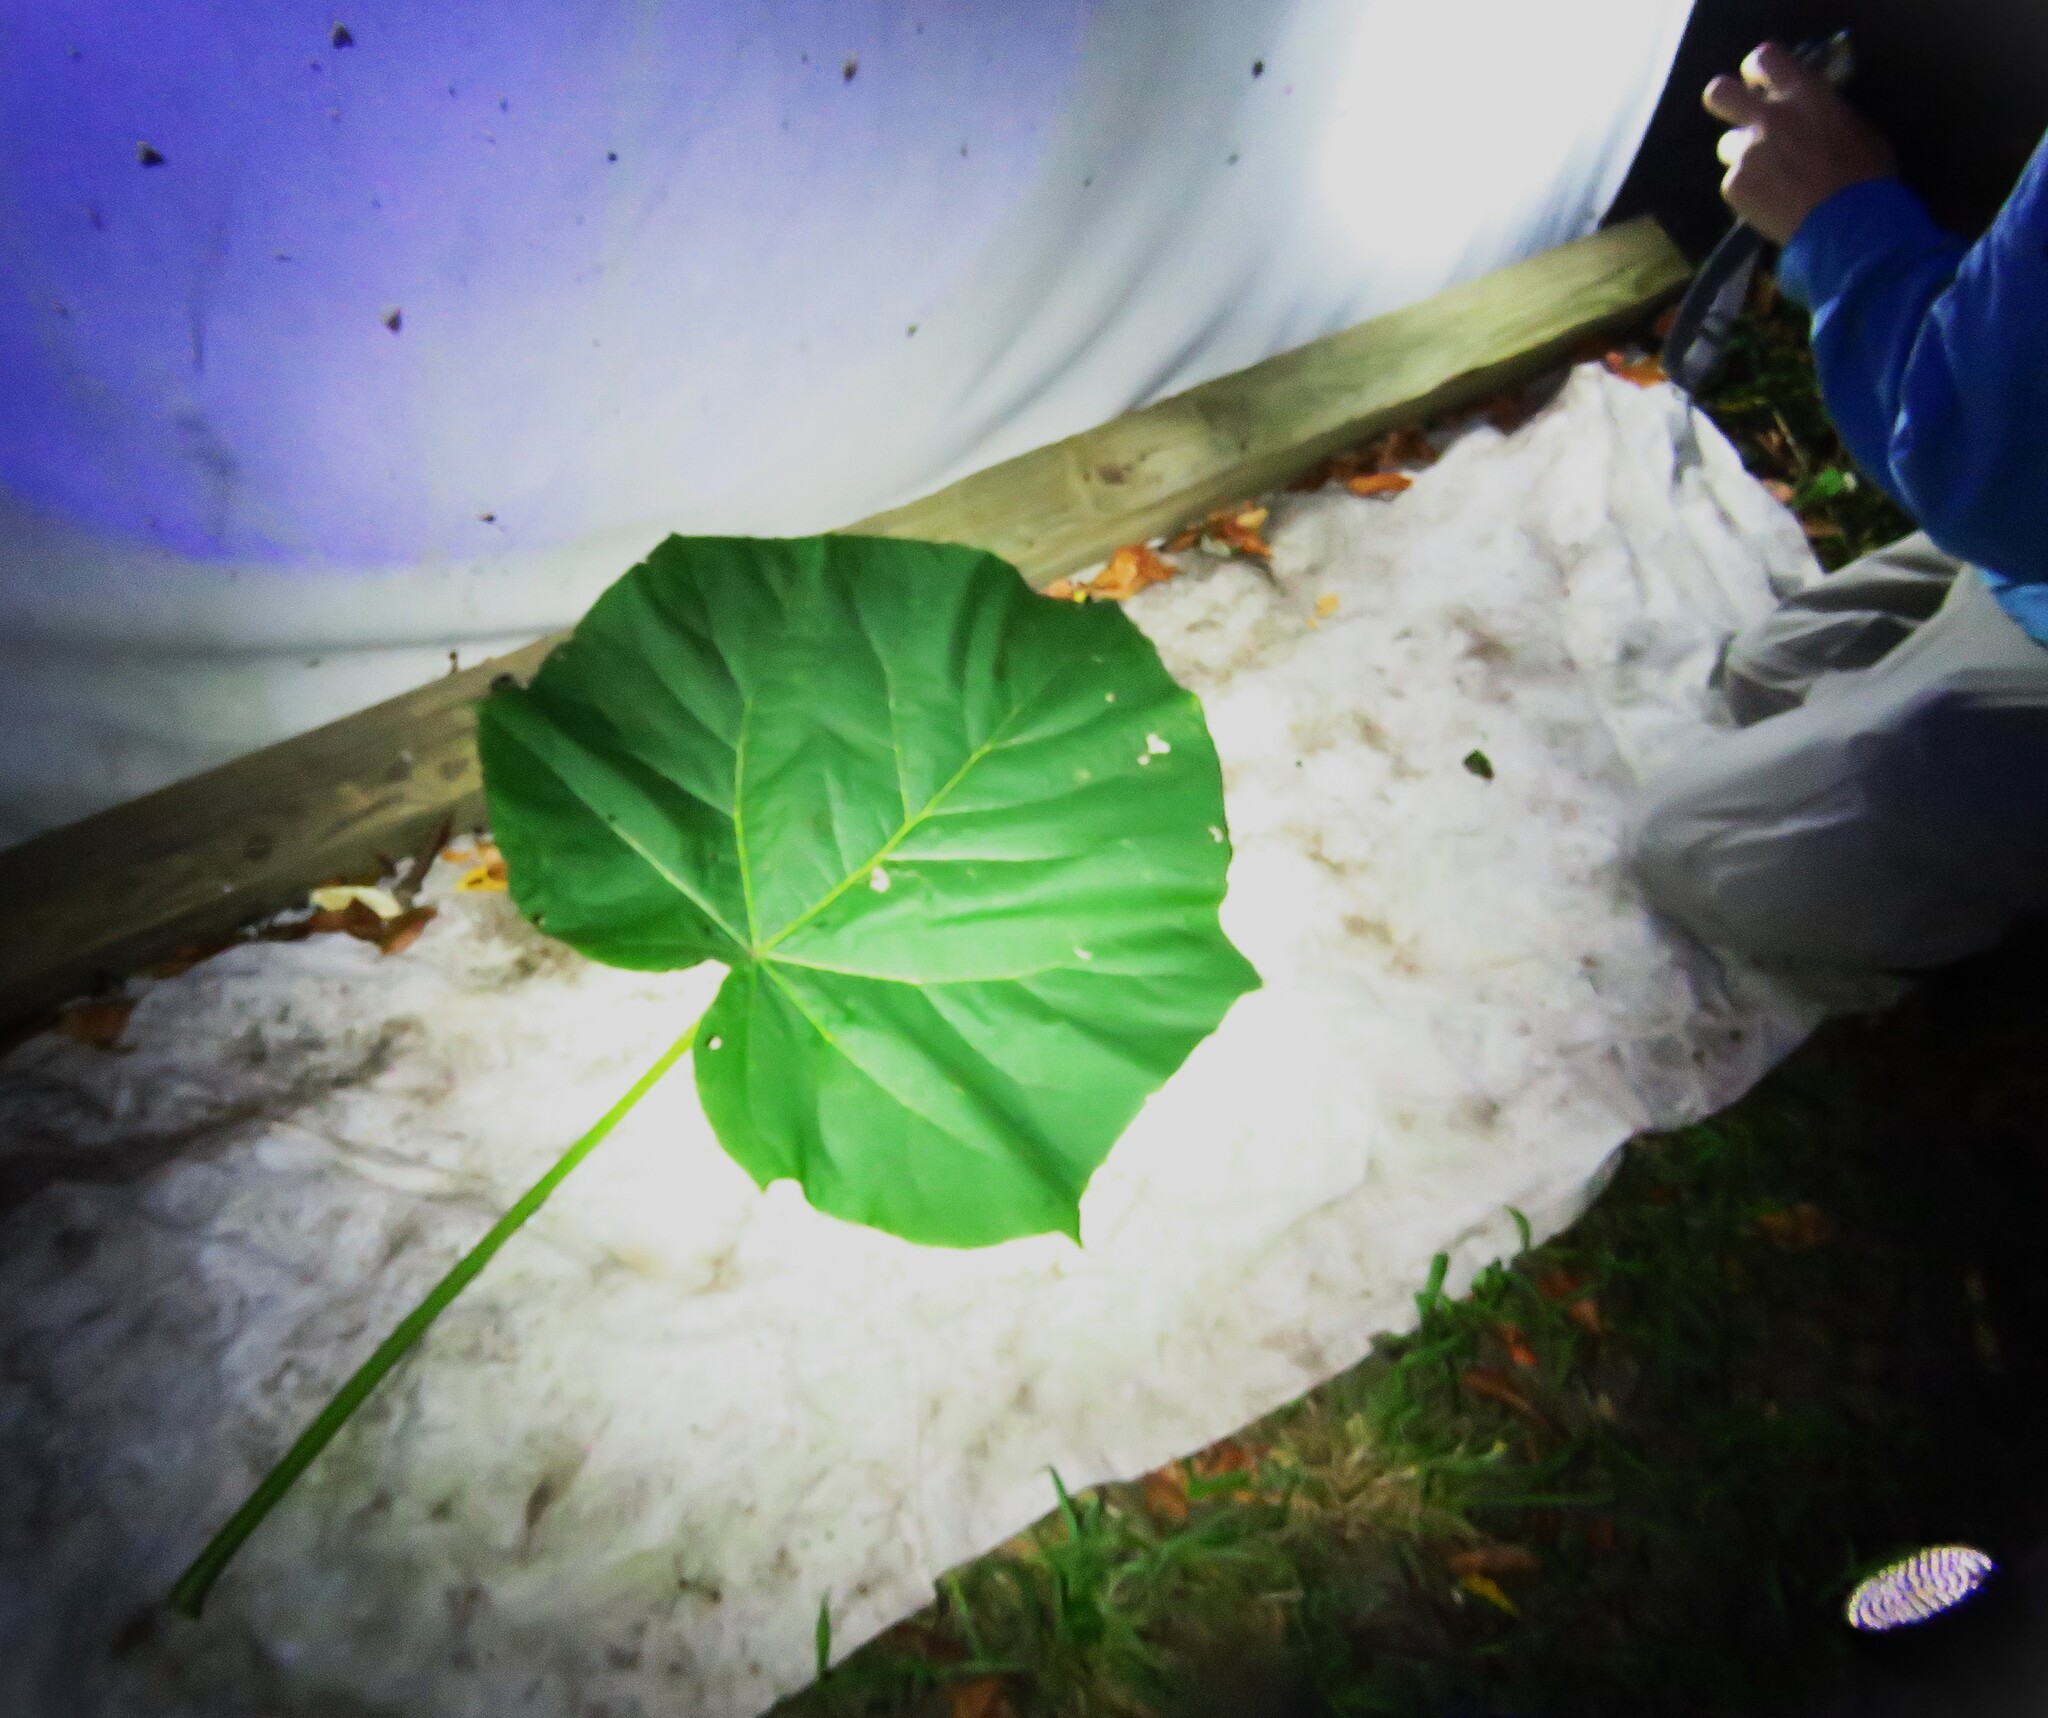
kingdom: Plantae
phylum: Tracheophyta
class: Magnoliopsida
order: Lamiales
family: Paulowniaceae
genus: Paulownia
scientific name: Paulownia tomentosa
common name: Foxglove-tree
